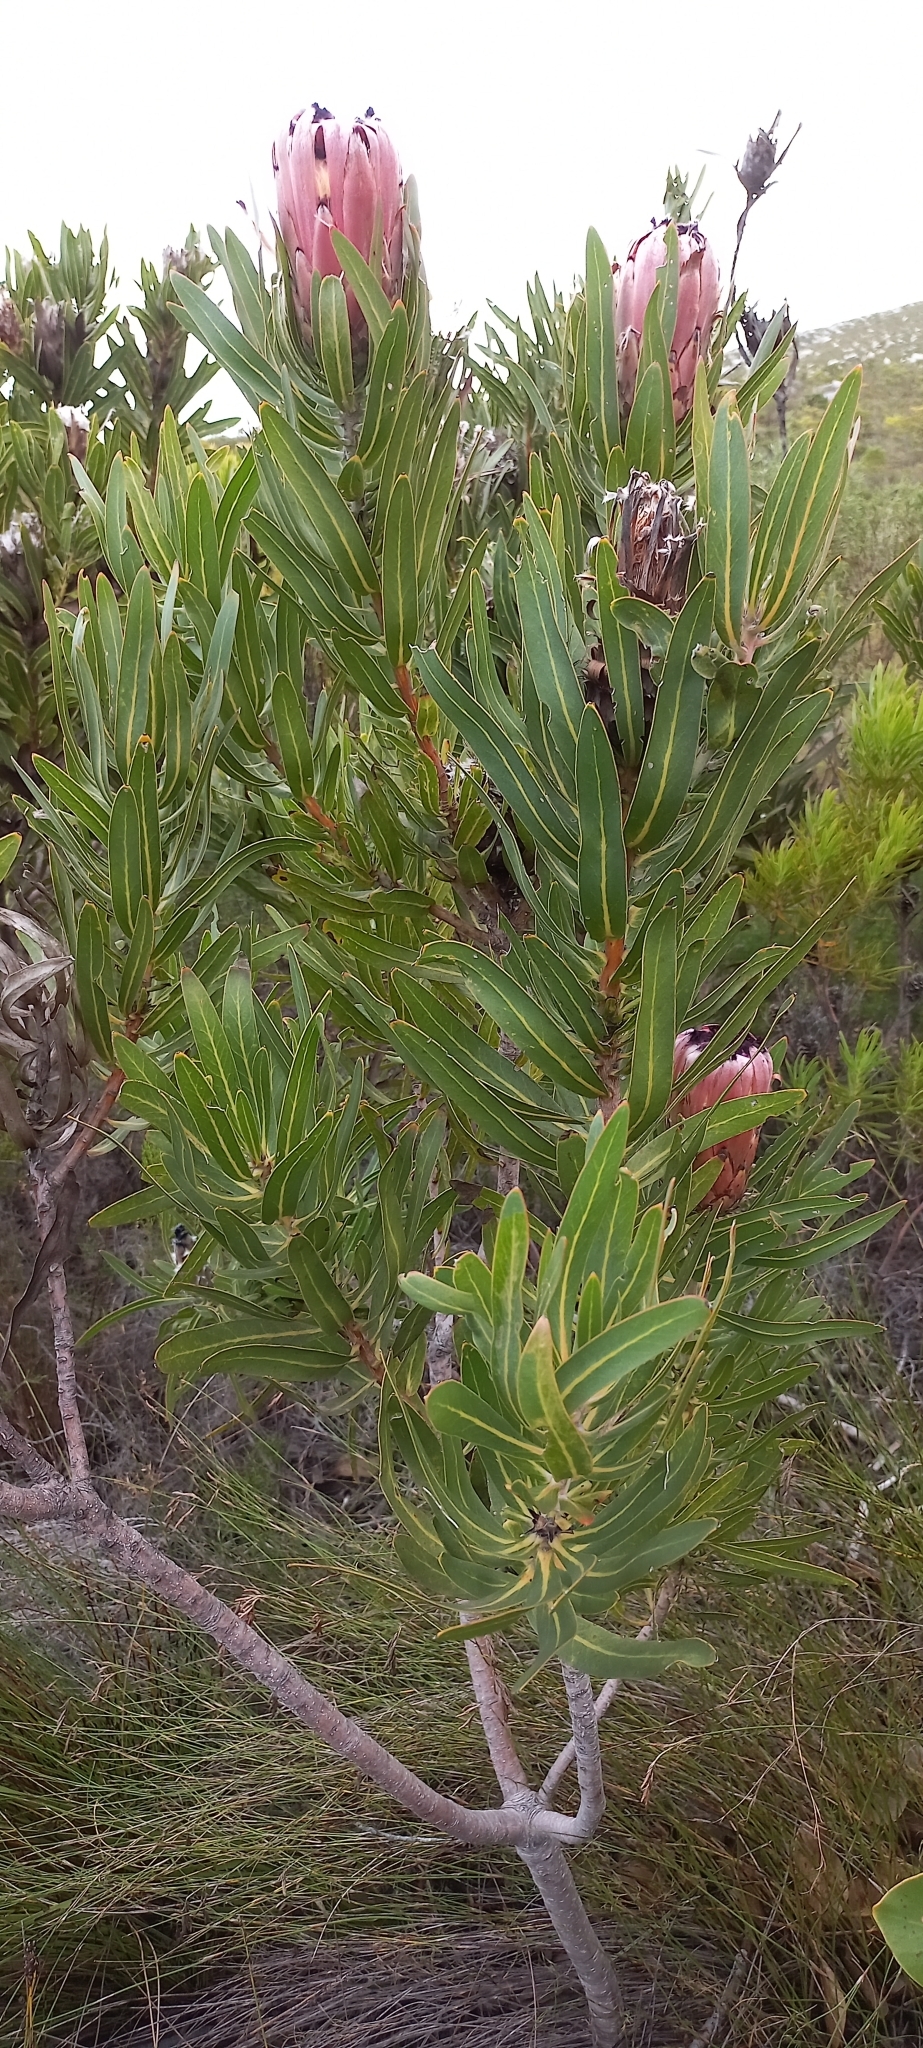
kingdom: Plantae
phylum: Tracheophyta
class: Magnoliopsida
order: Proteales
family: Proteaceae
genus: Protea
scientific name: Protea
